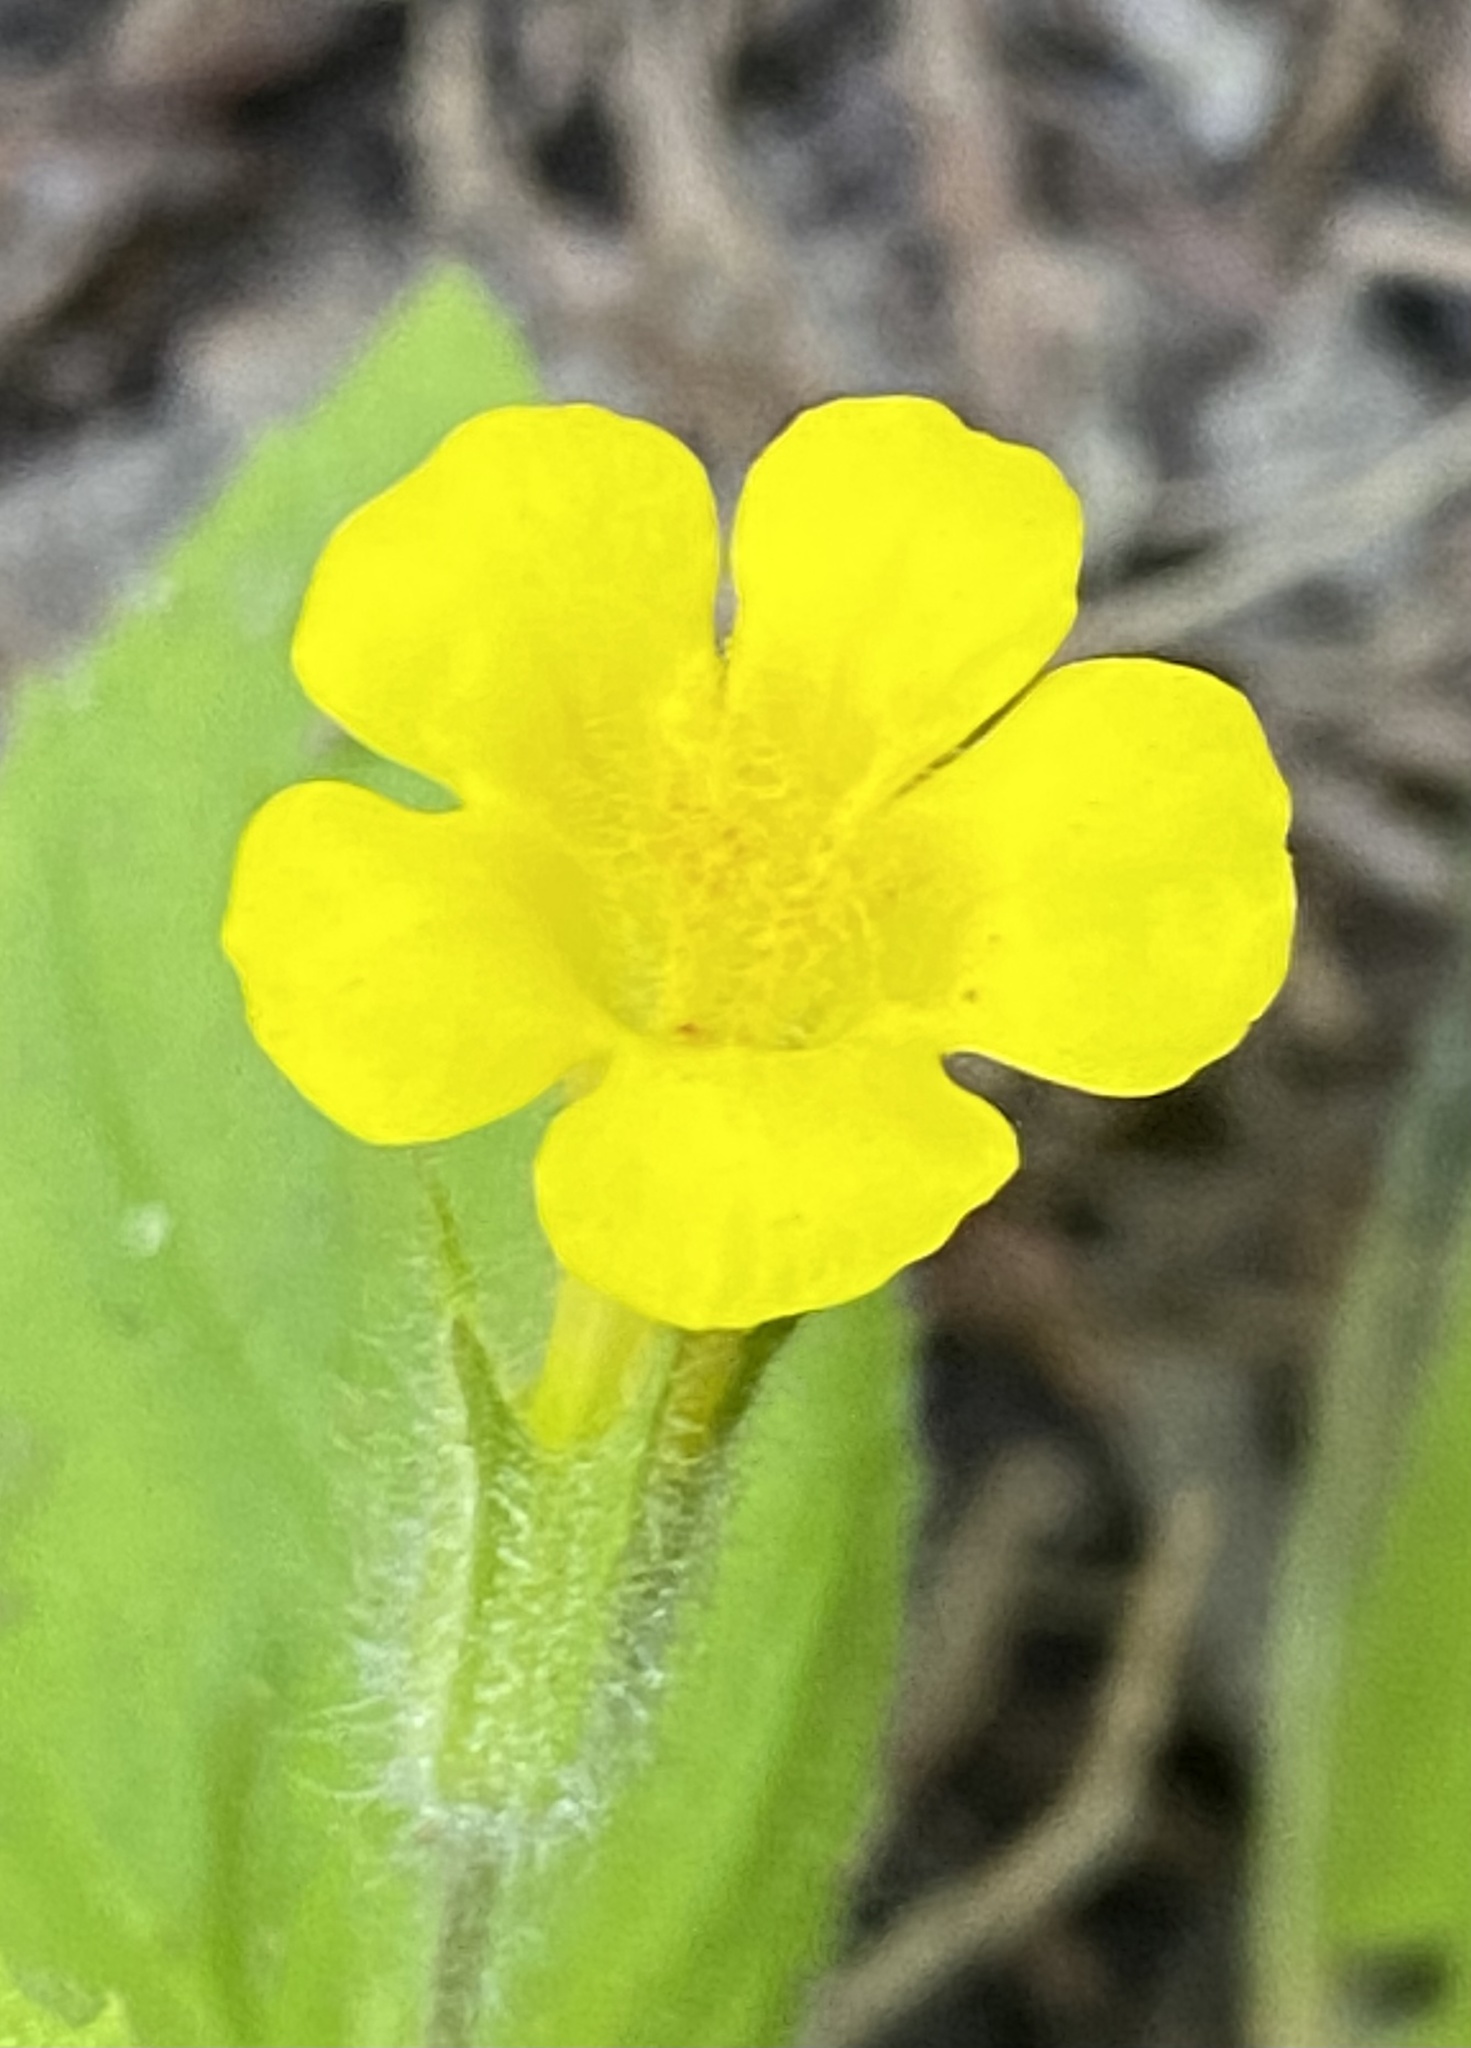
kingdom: Plantae
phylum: Tracheophyta
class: Magnoliopsida
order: Lamiales
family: Phrymaceae
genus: Erythranthe
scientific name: Erythranthe ptilota
